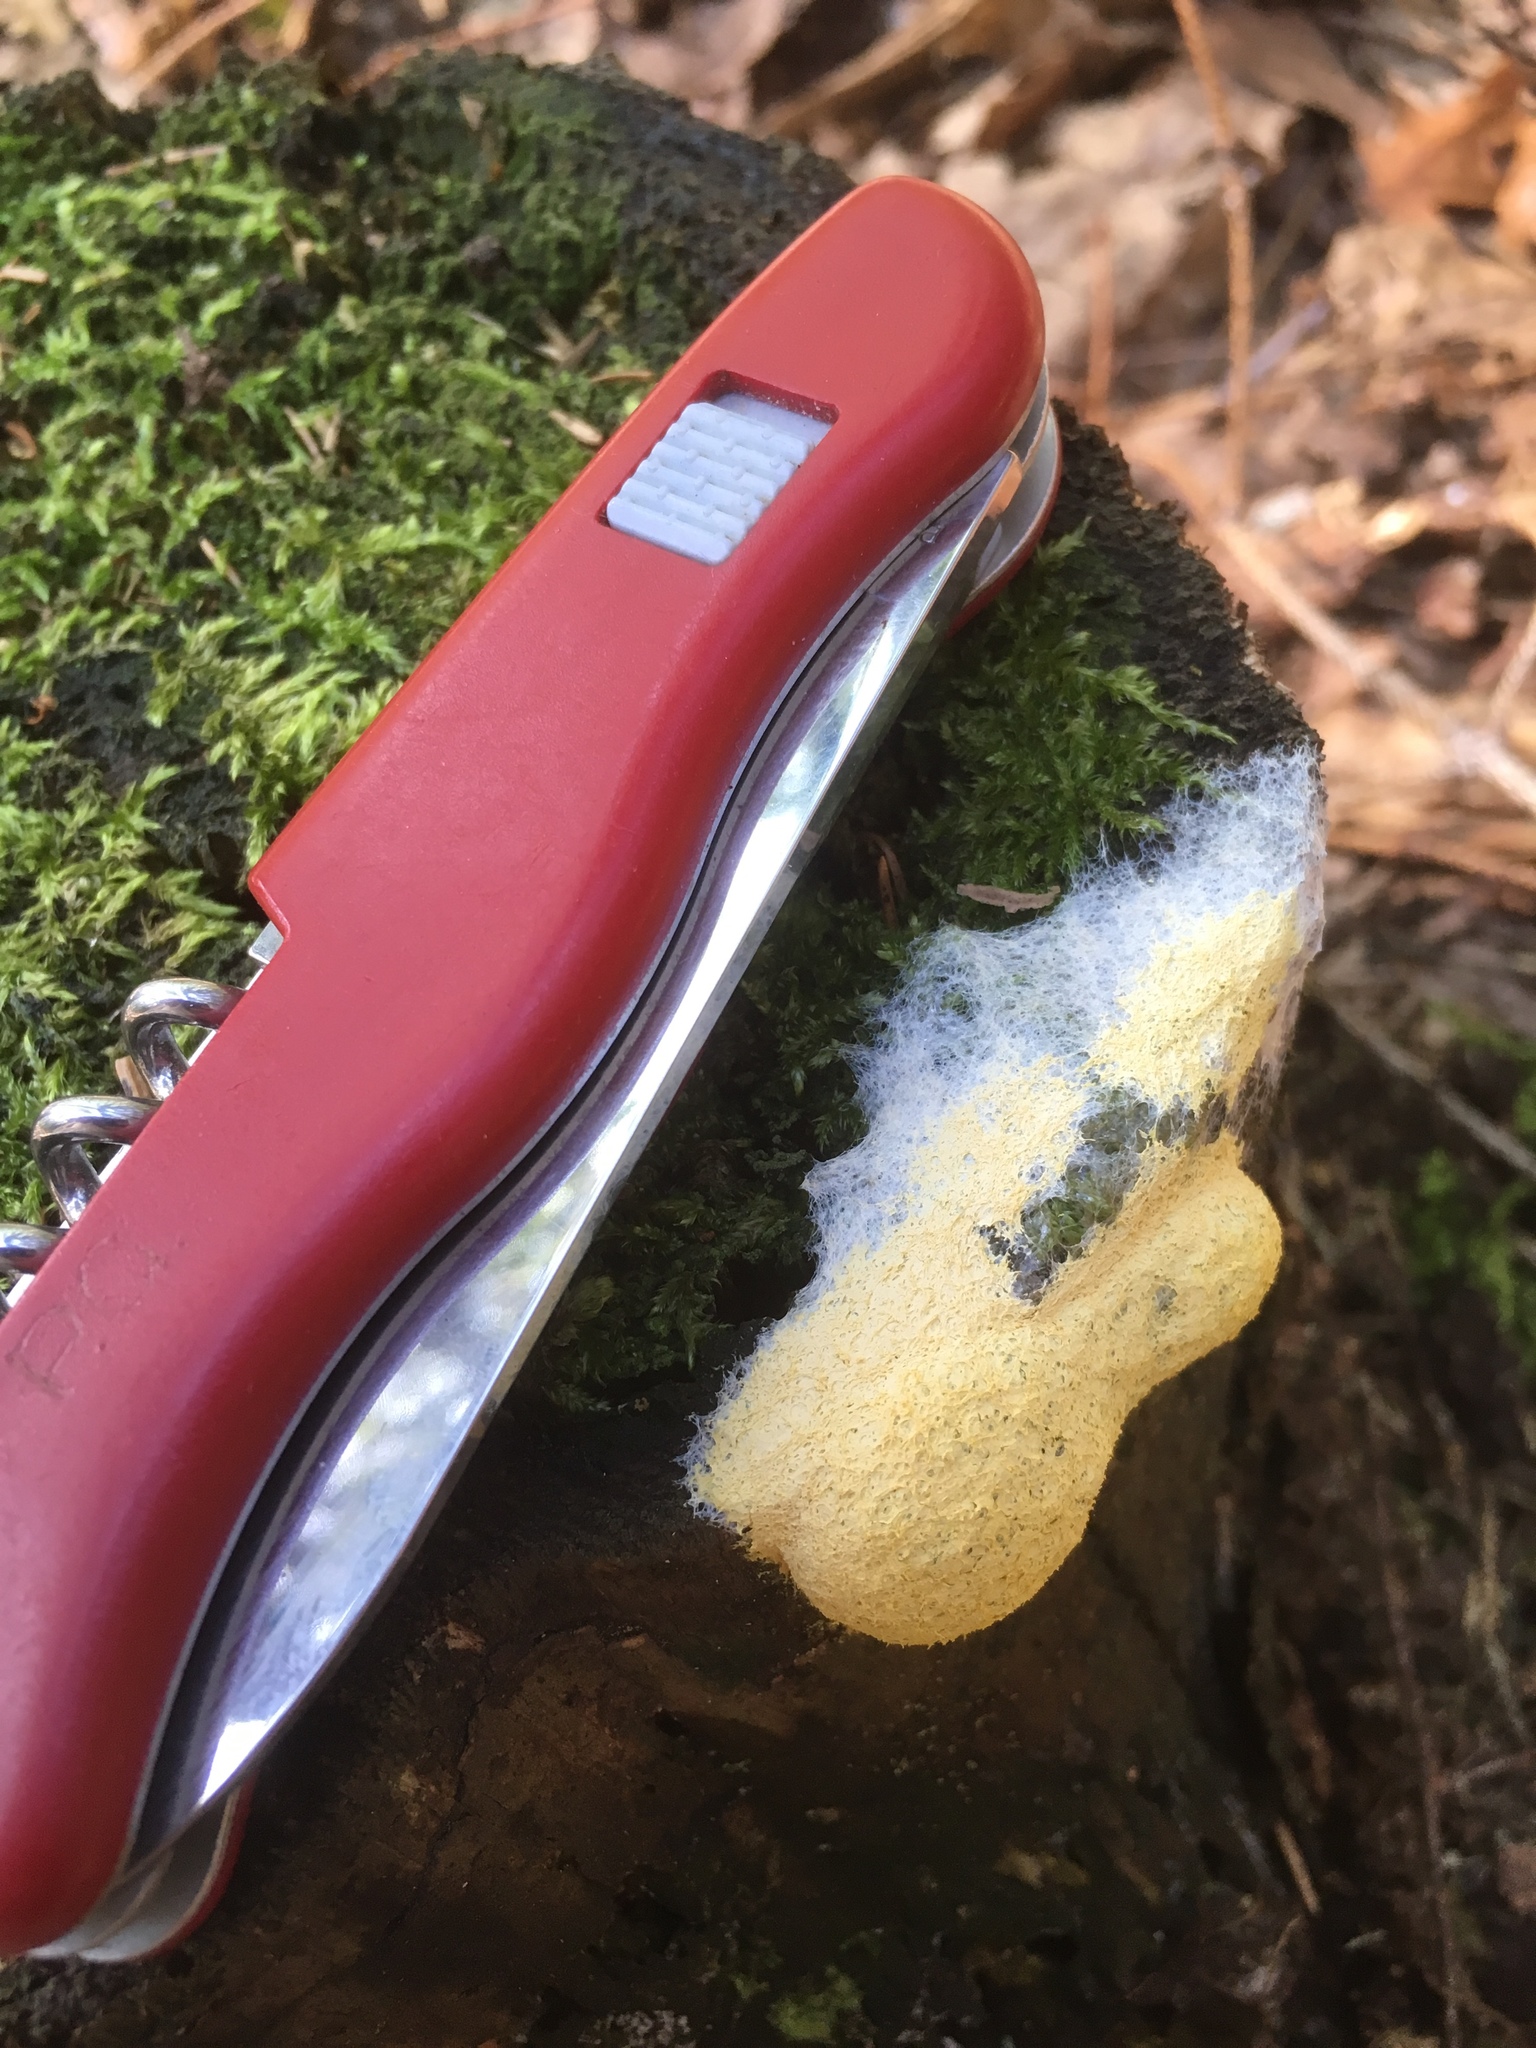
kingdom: Protozoa
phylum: Mycetozoa
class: Myxomycetes
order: Physarales
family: Physaraceae
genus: Fuligo
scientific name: Fuligo septica
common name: Dog vomit slime mold
